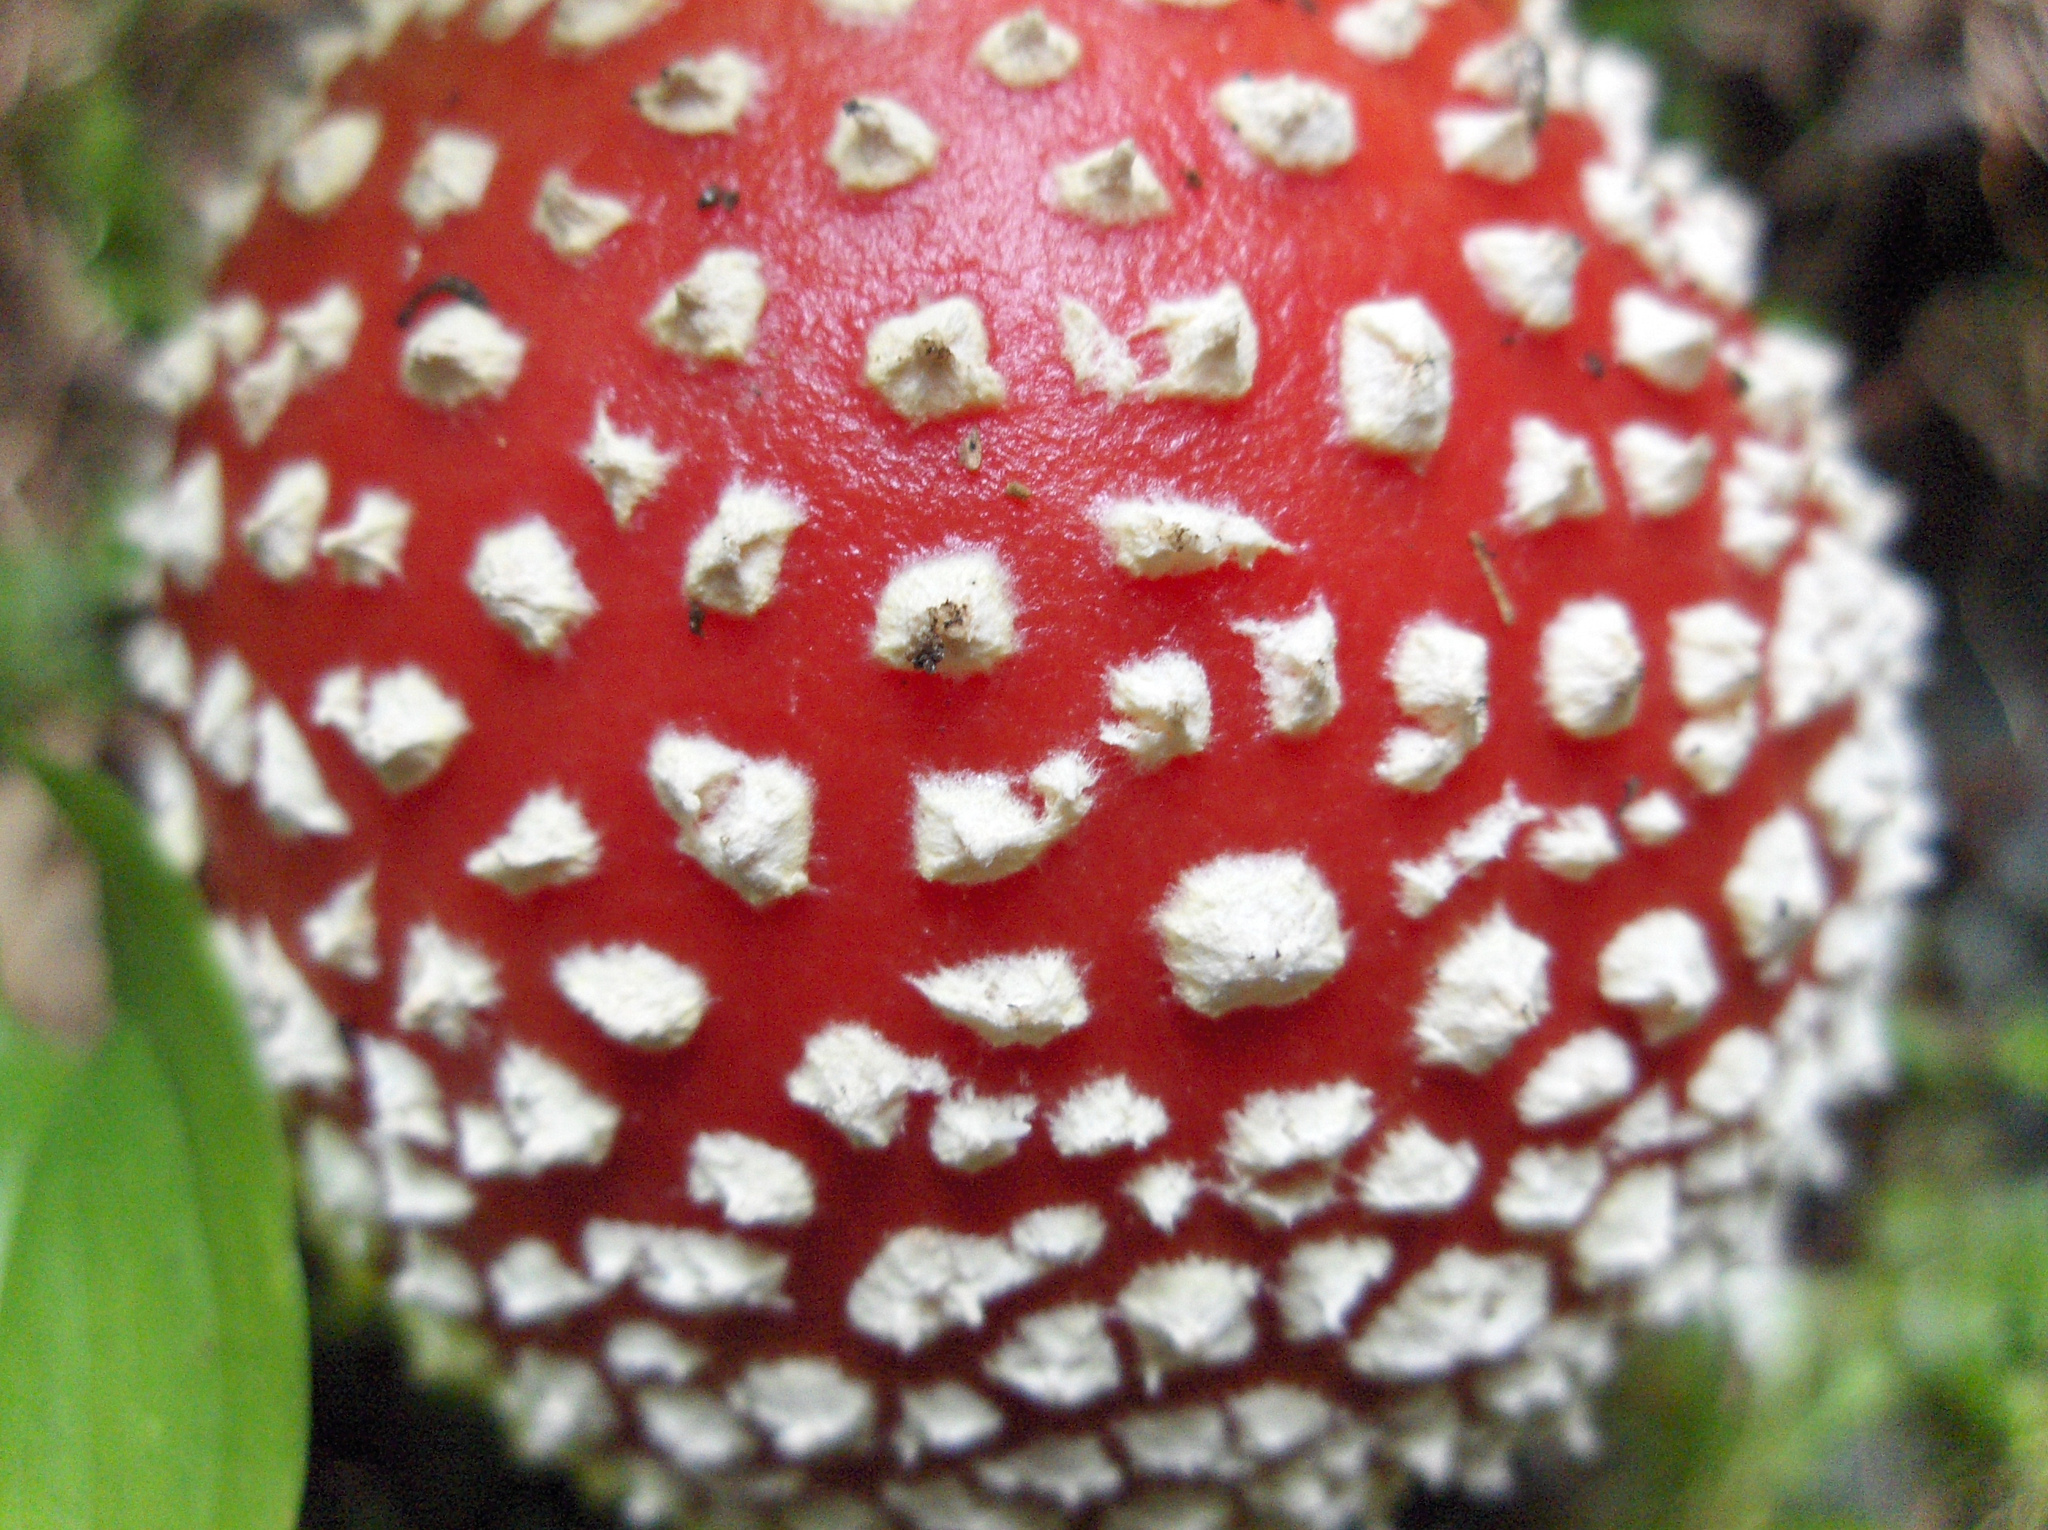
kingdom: Fungi
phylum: Basidiomycota
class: Agaricomycetes
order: Agaricales
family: Amanitaceae
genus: Amanita
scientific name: Amanita muscaria
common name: Fly agaric
